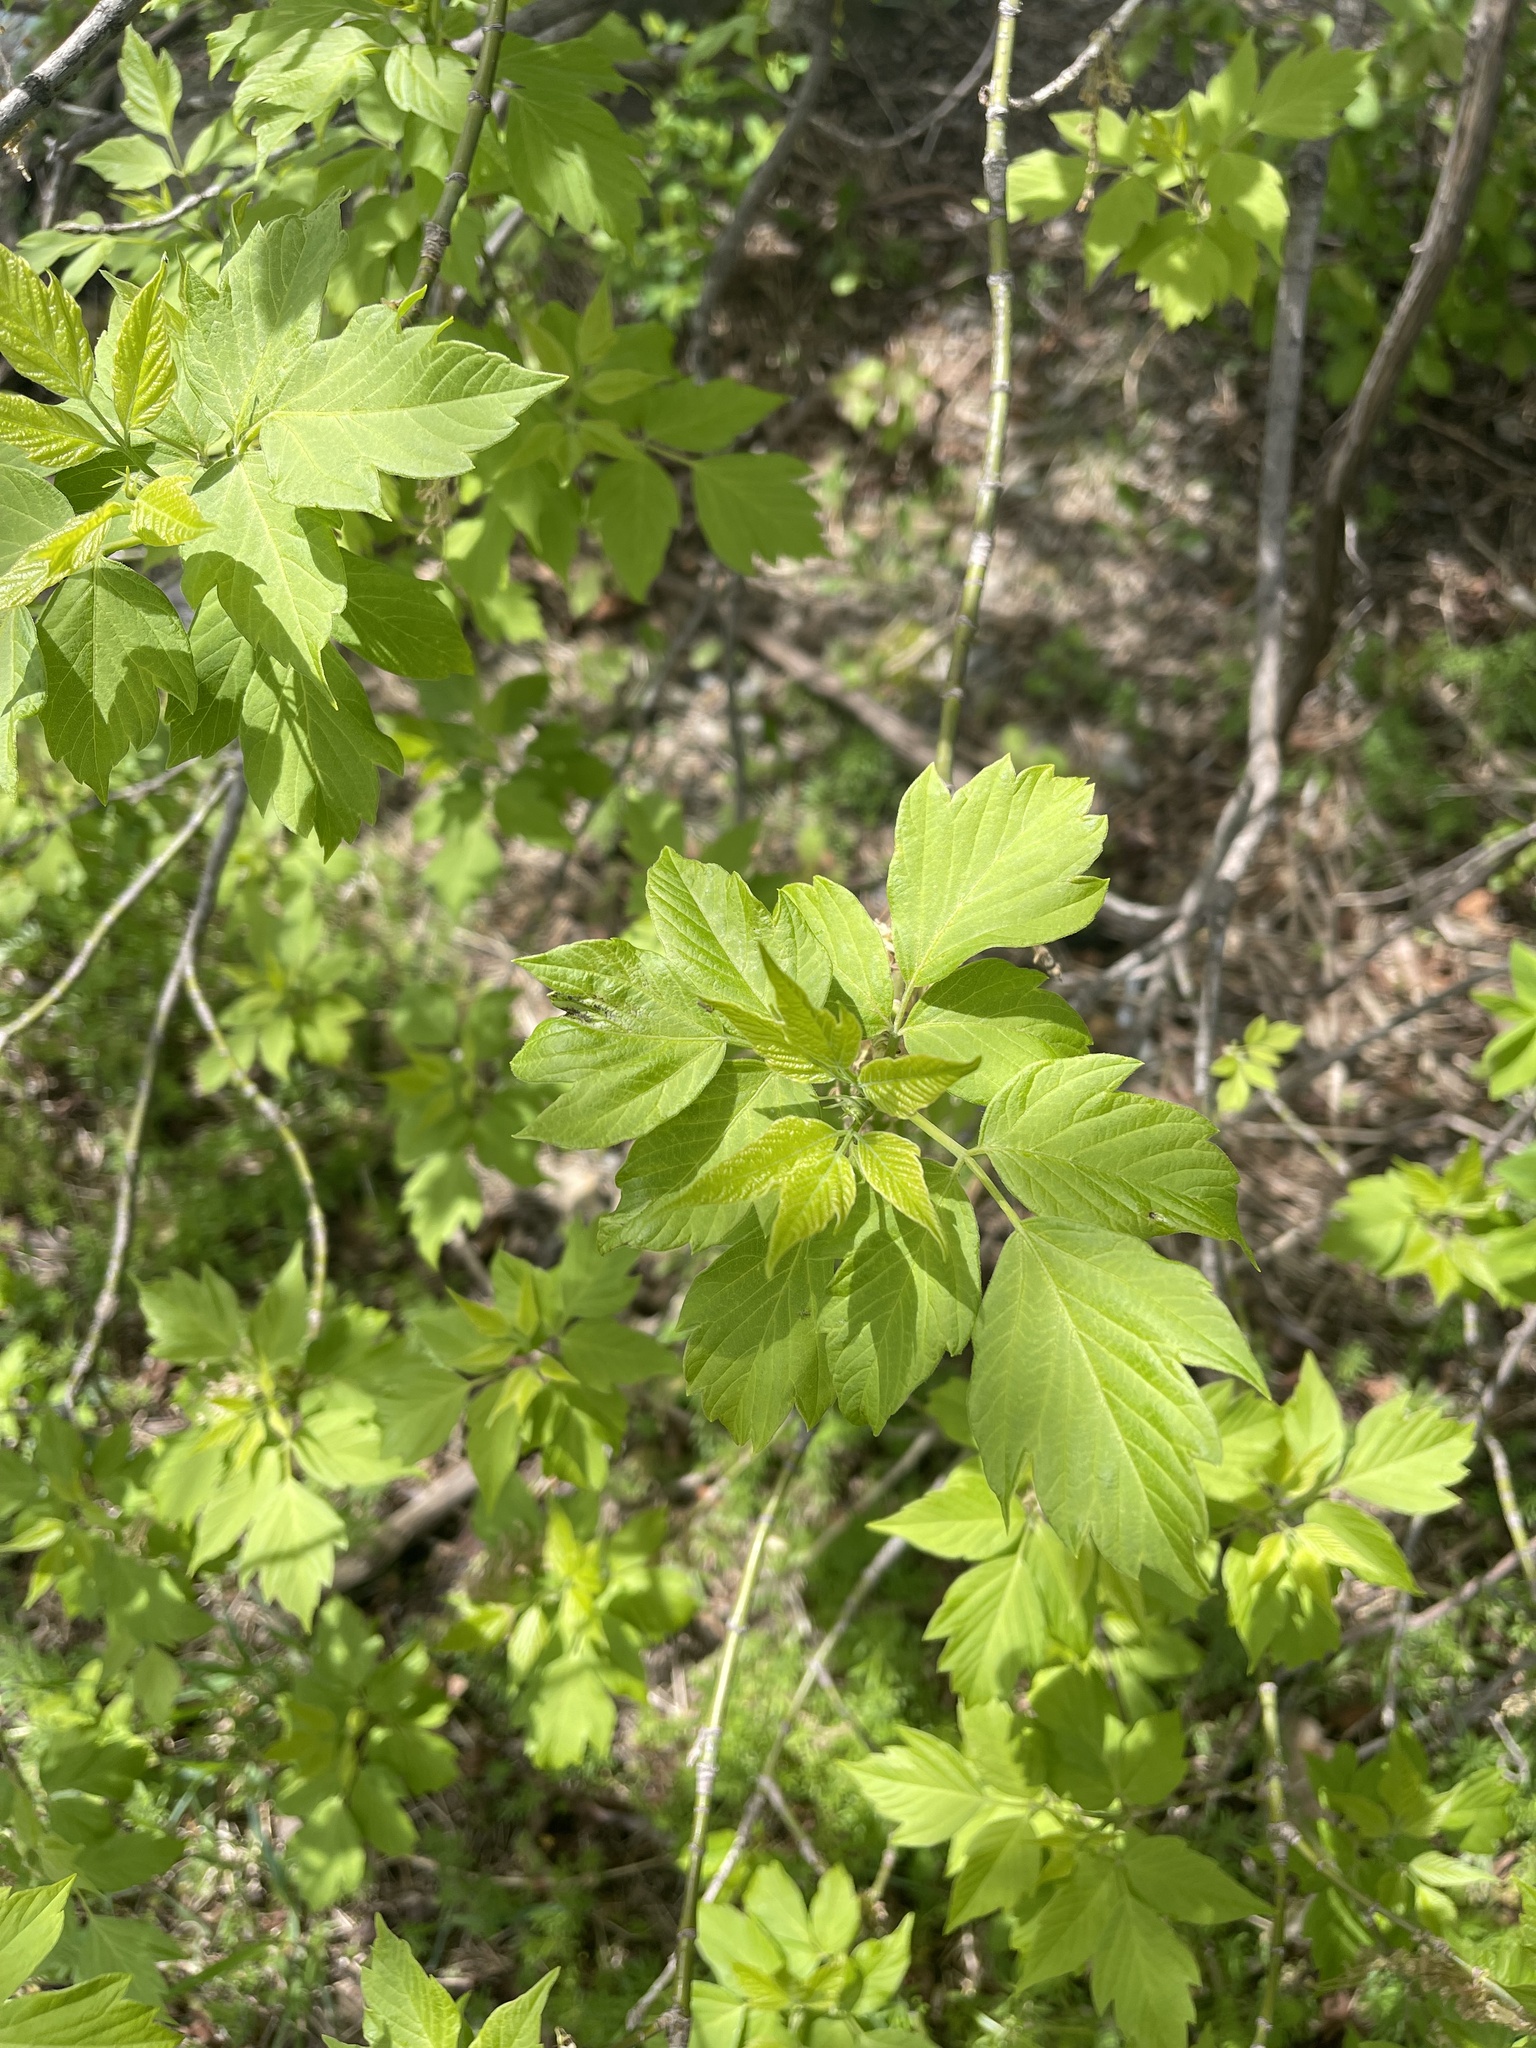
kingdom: Plantae
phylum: Tracheophyta
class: Magnoliopsida
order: Sapindales
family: Sapindaceae
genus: Acer
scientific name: Acer negundo
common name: Ashleaf maple
